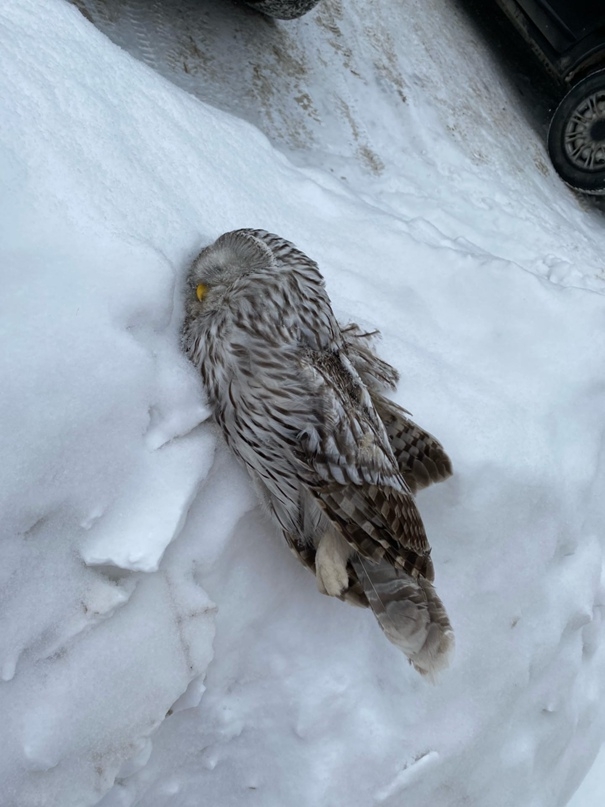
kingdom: Animalia
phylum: Chordata
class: Aves
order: Strigiformes
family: Strigidae
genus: Strix
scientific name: Strix uralensis
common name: Ural owl
